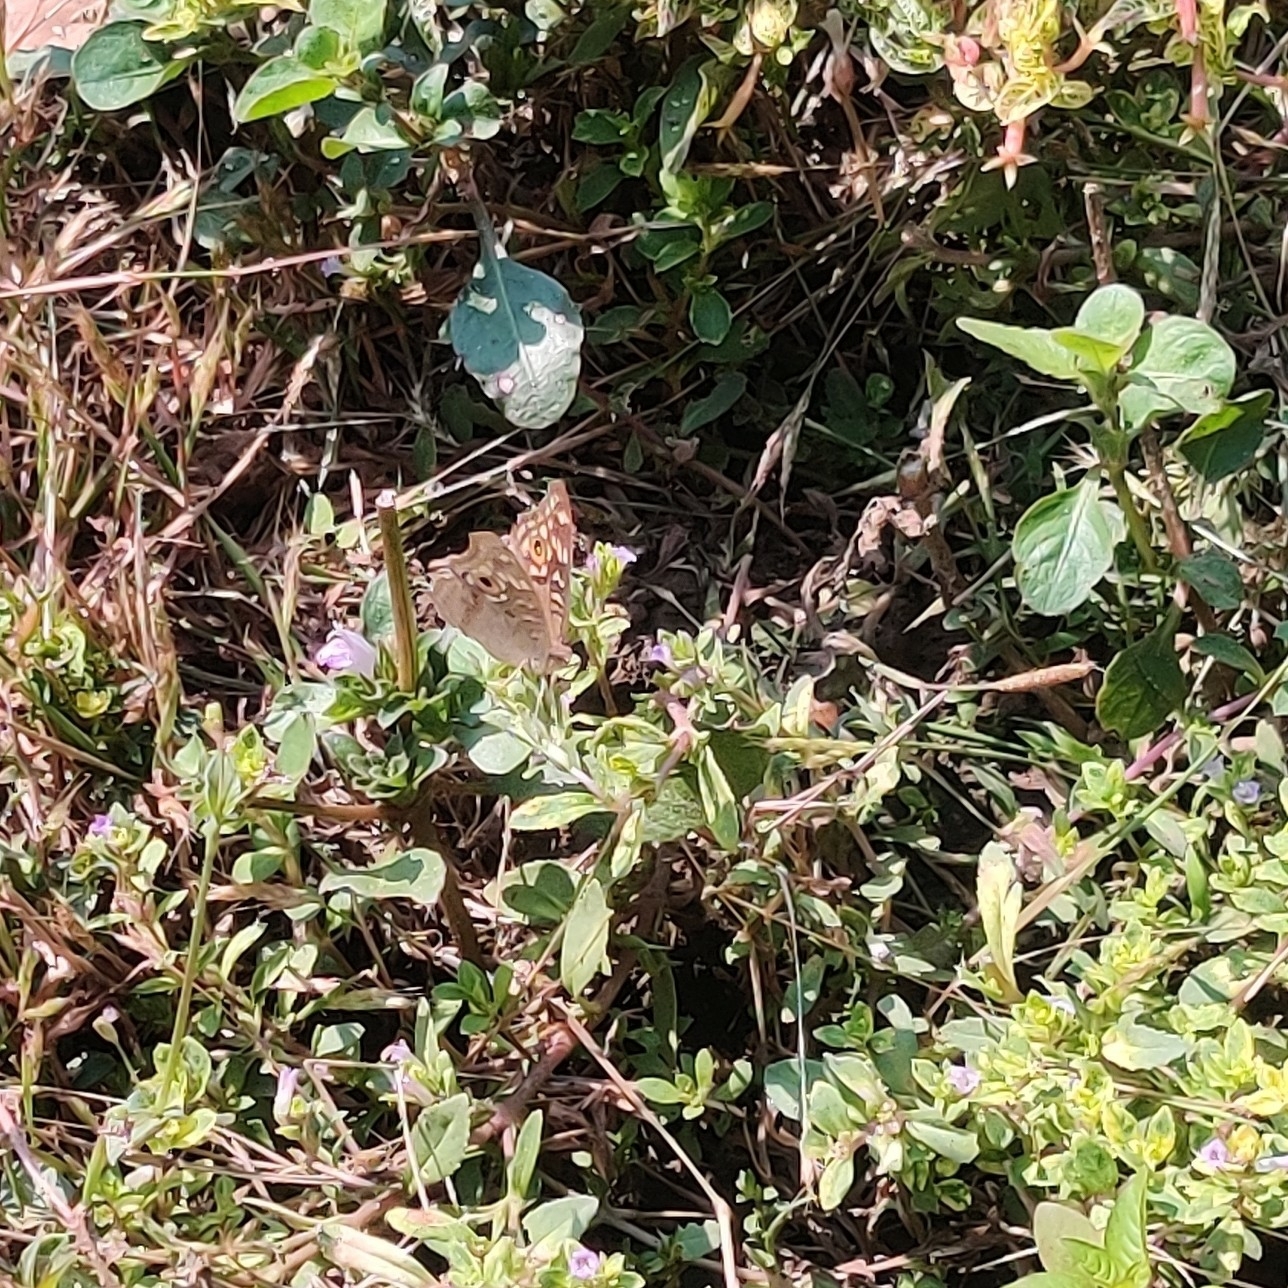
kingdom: Animalia
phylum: Arthropoda
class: Insecta
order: Lepidoptera
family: Nymphalidae
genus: Junonia
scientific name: Junonia lemonias
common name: Lemon pansy
